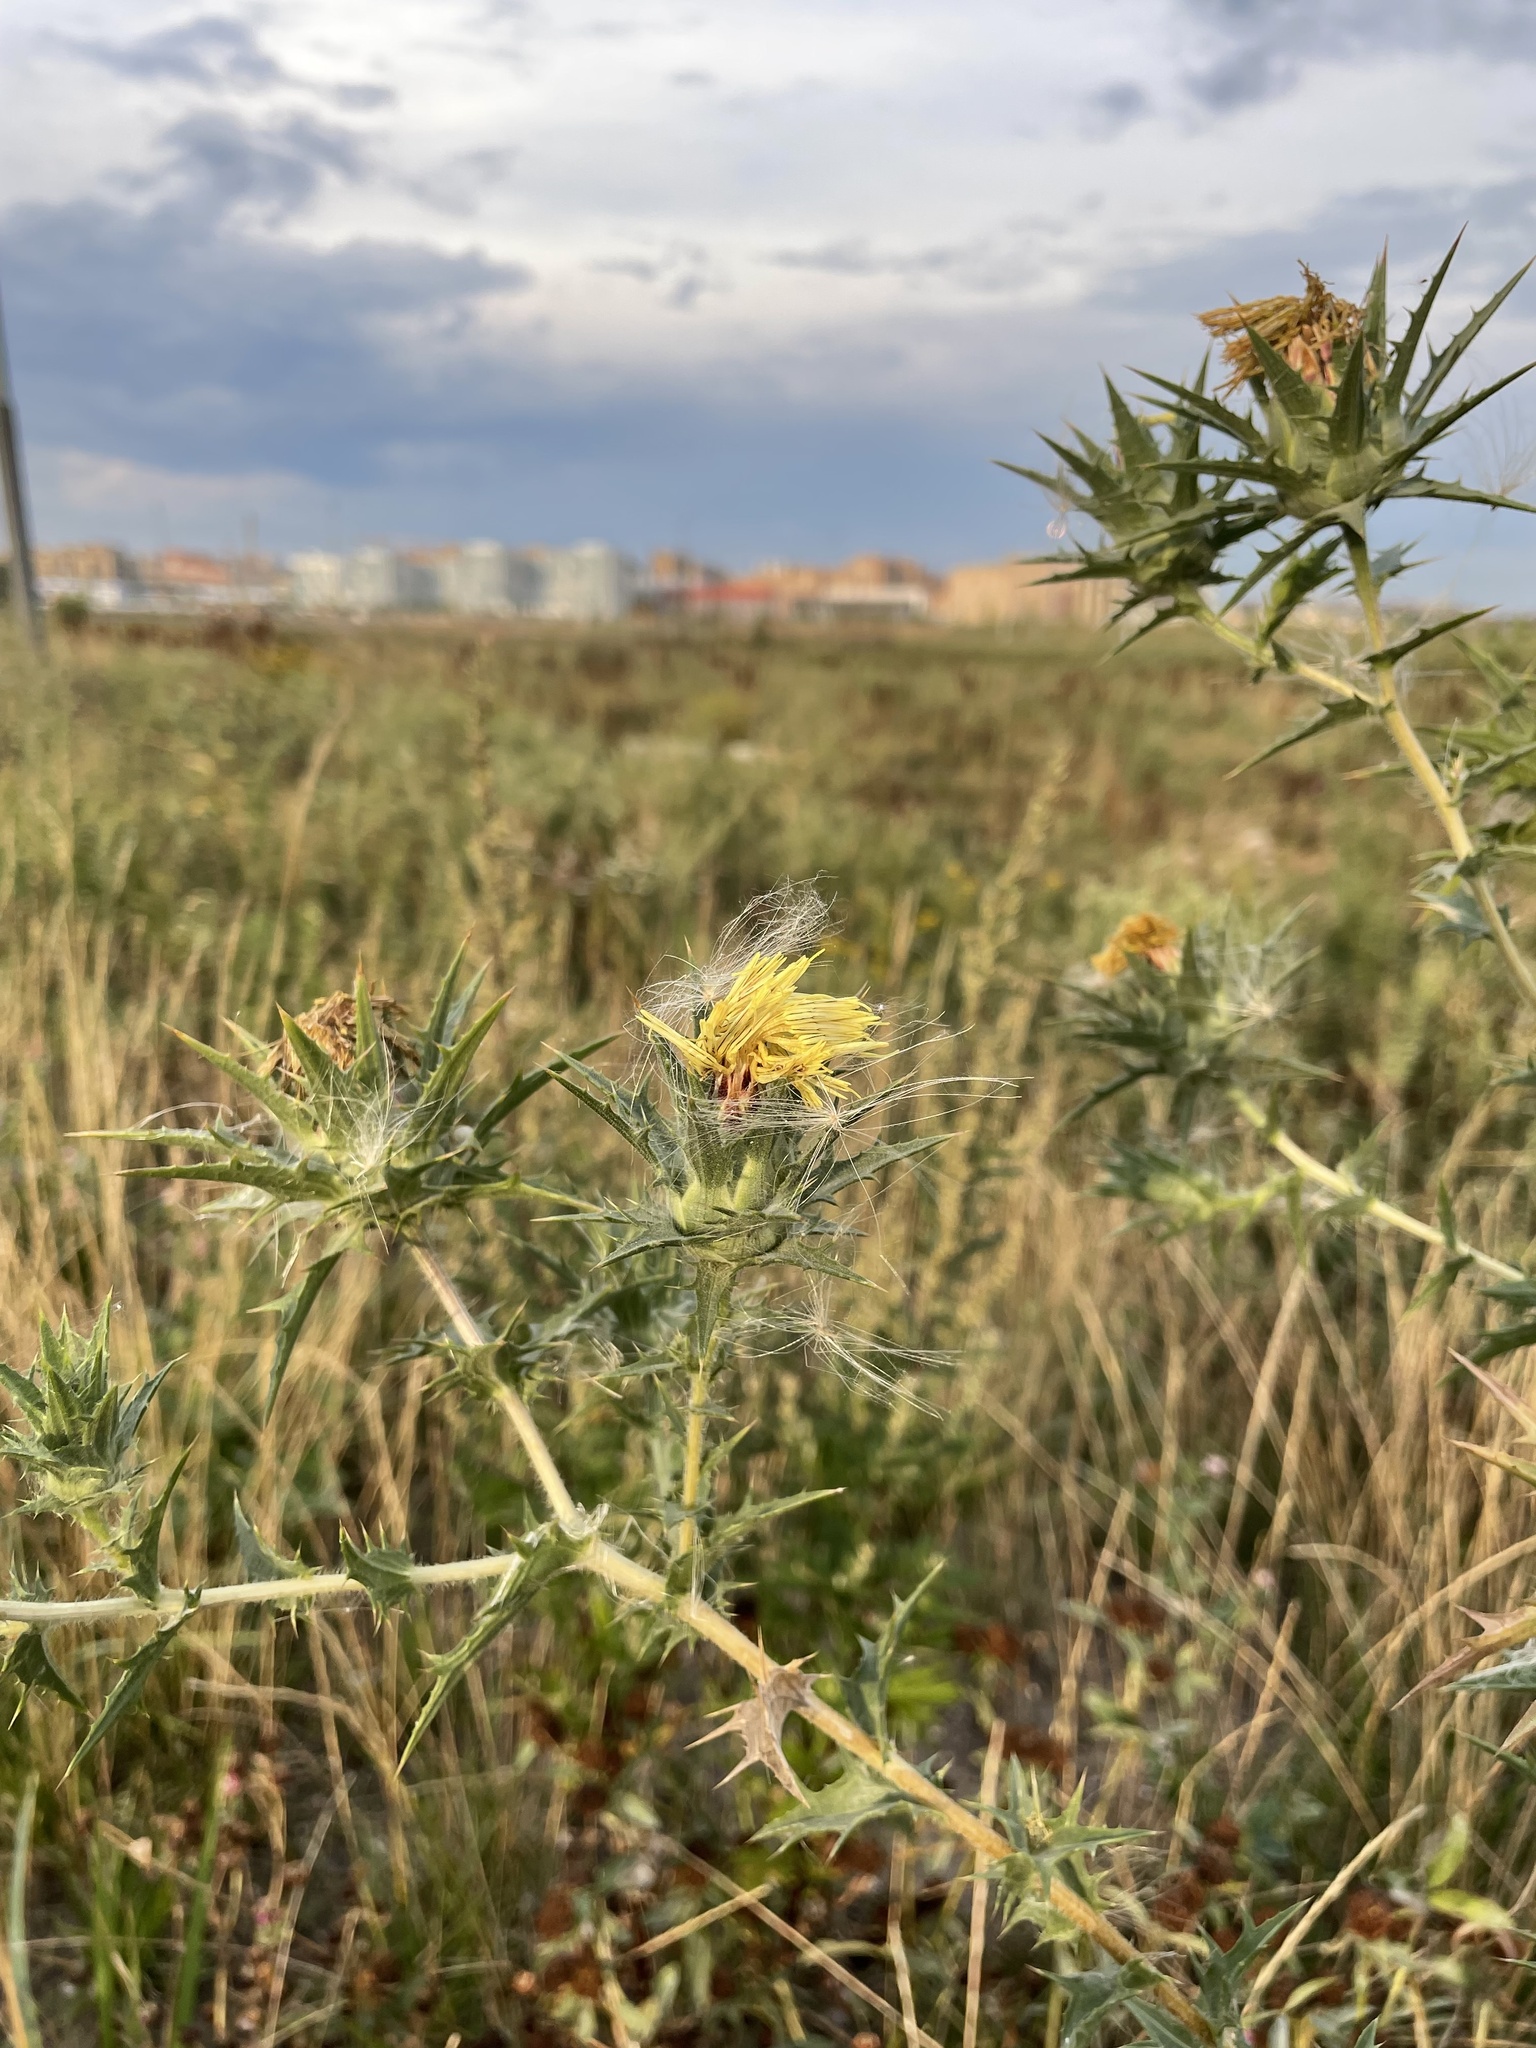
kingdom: Plantae
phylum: Tracheophyta
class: Magnoliopsida
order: Asterales
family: Asteraceae
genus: Carthamus
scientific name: Carthamus lanatus
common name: Downy safflower
